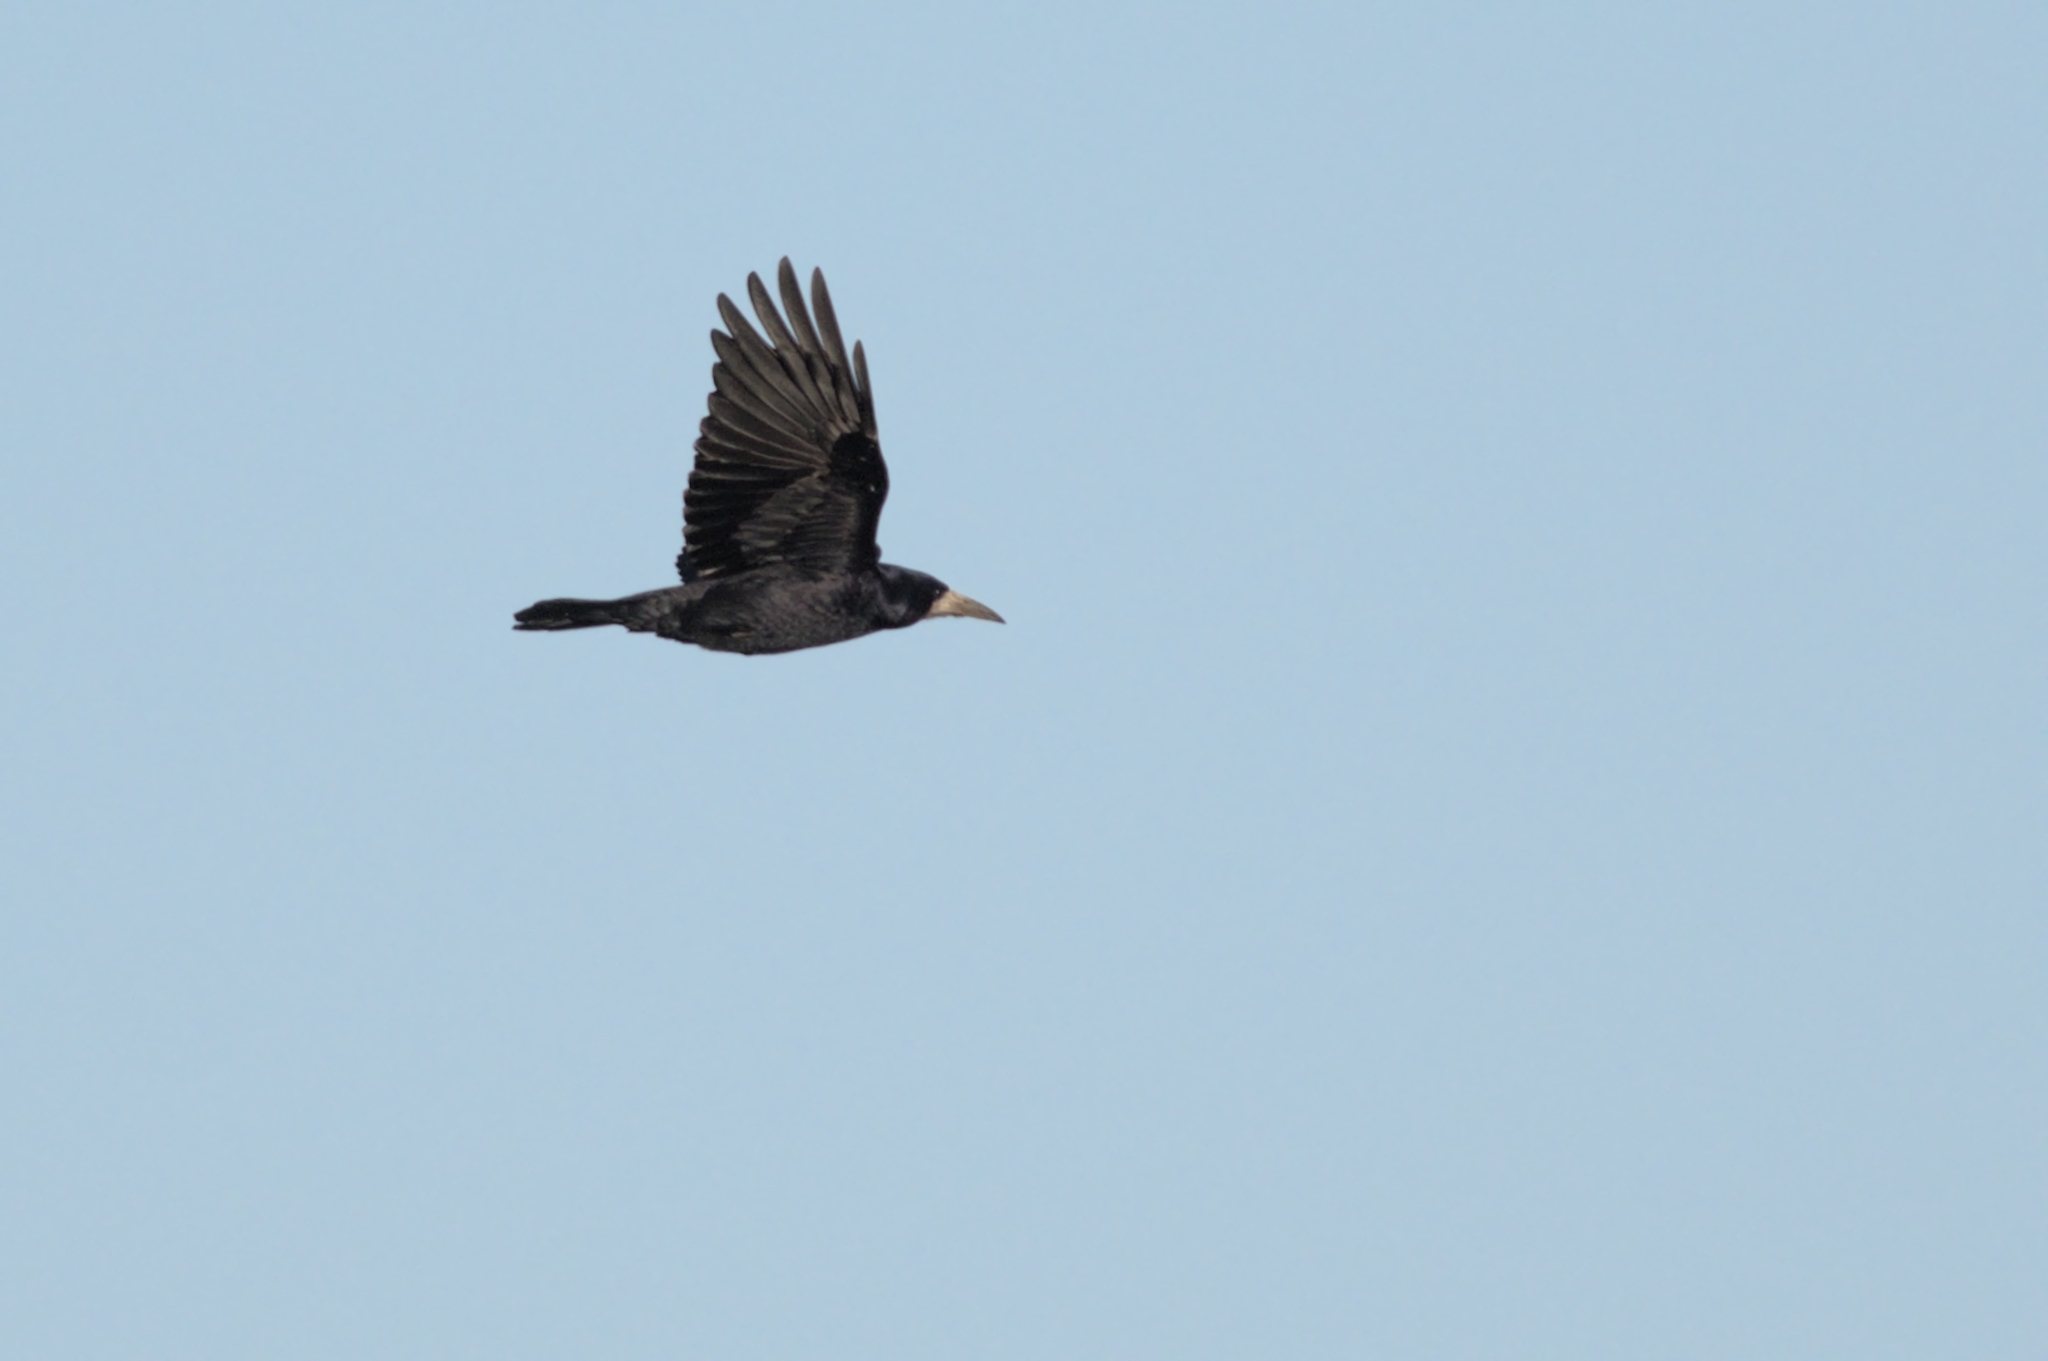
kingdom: Animalia
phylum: Chordata
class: Aves
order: Passeriformes
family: Corvidae
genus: Corvus
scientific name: Corvus frugilegus
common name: Rook
